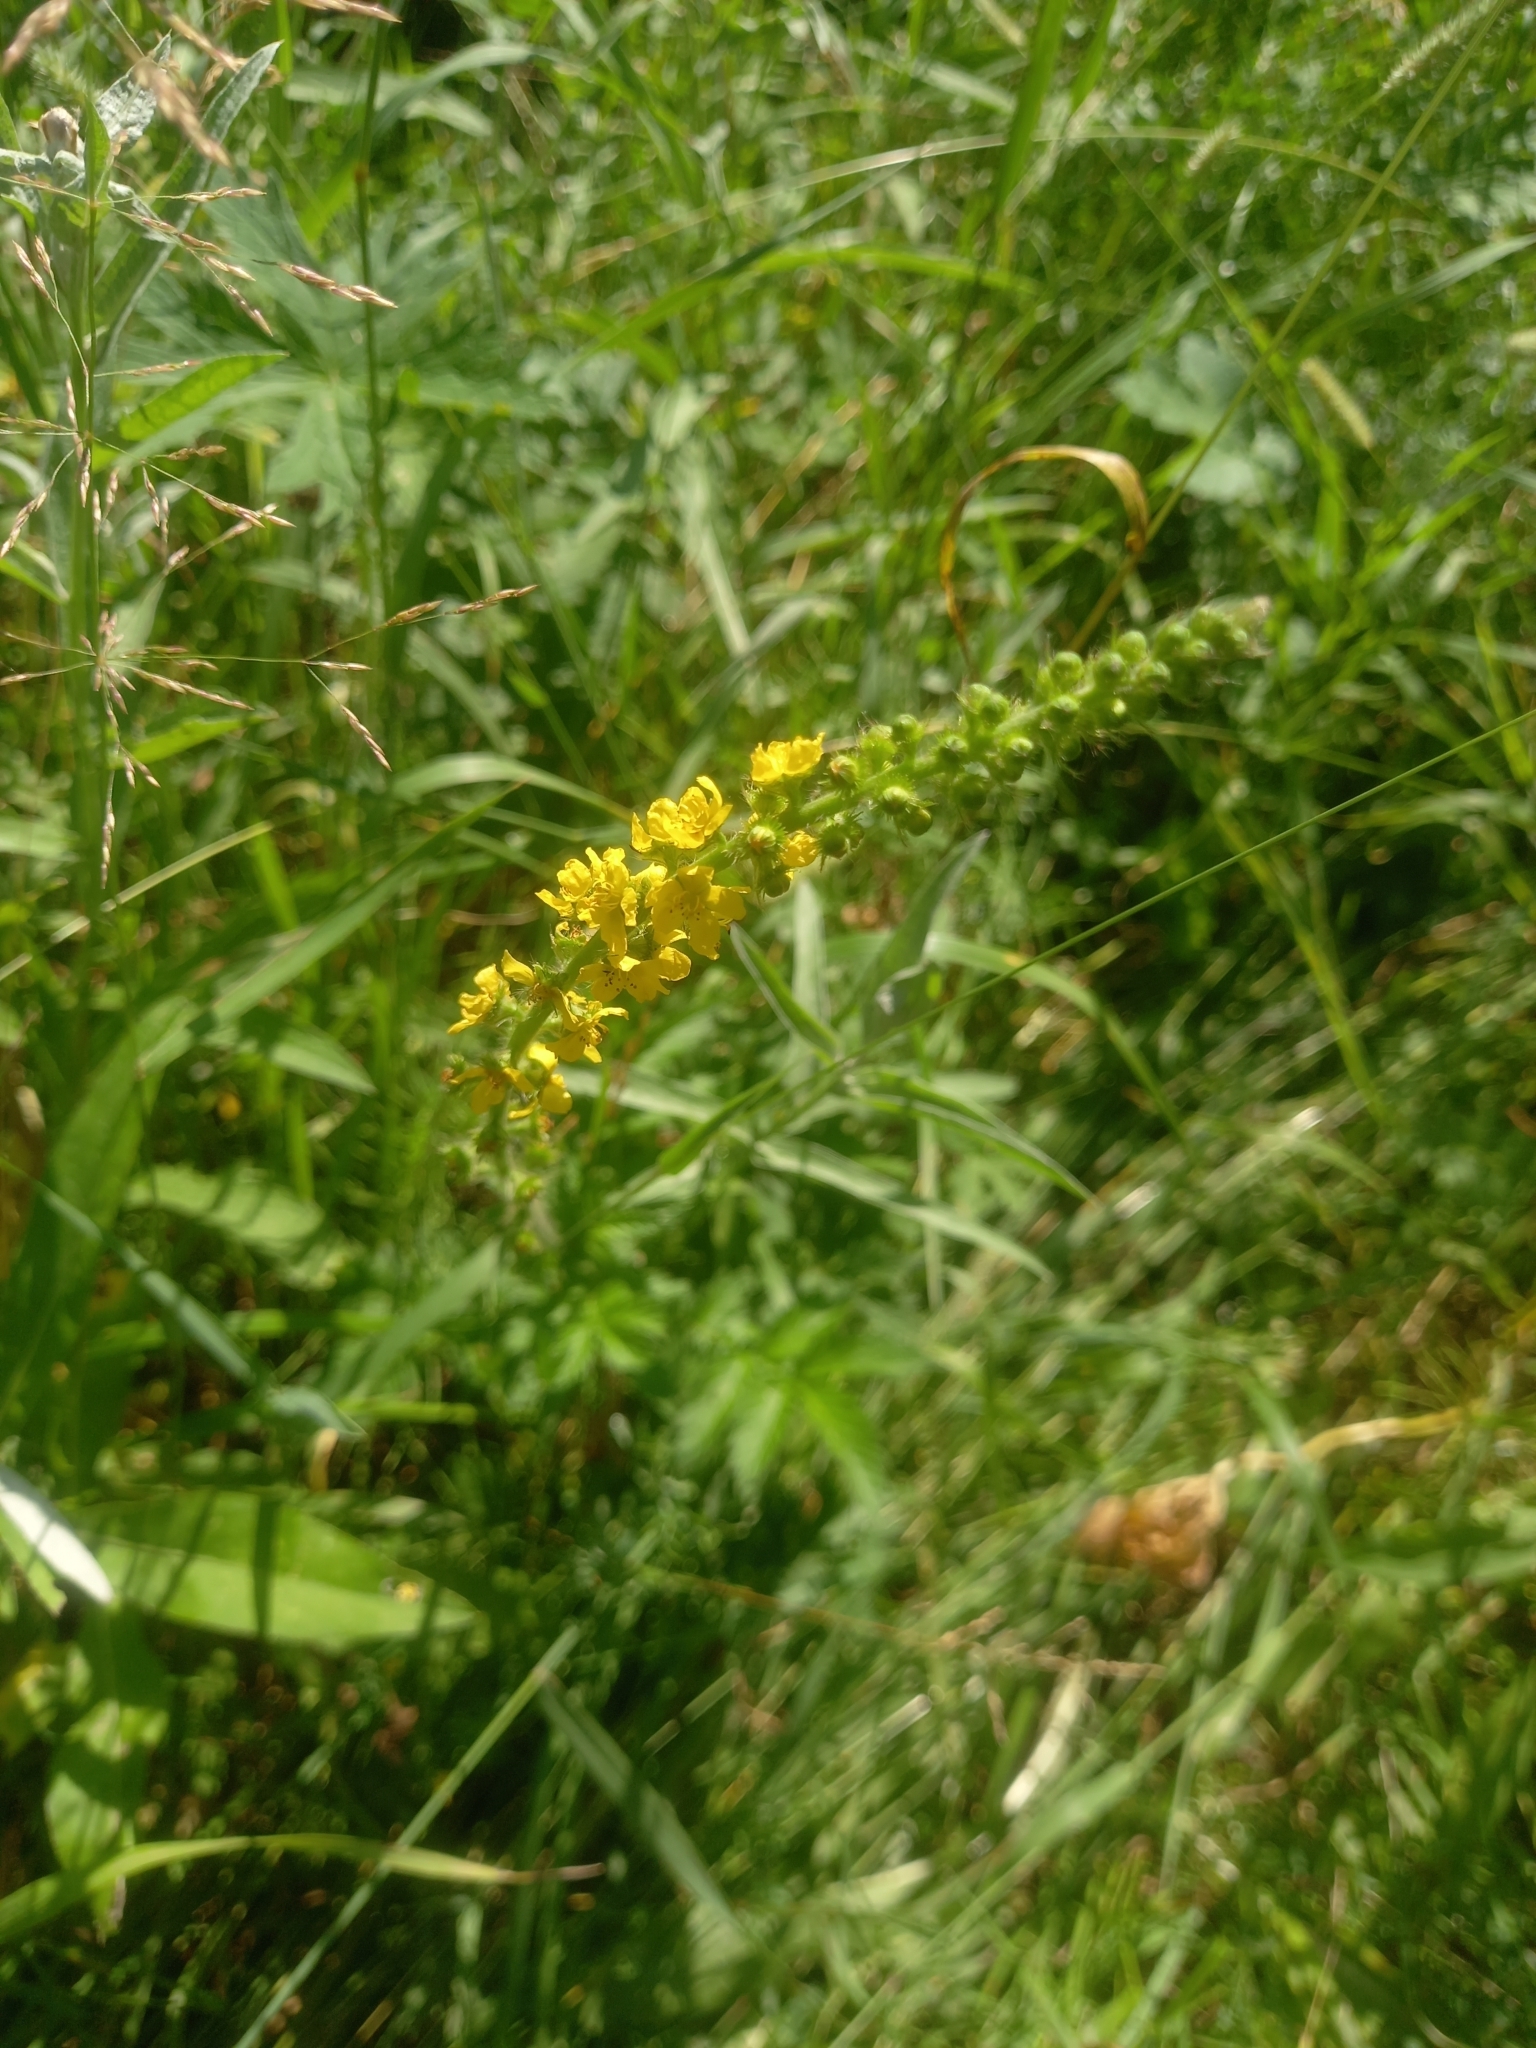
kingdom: Plantae
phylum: Tracheophyta
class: Magnoliopsida
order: Rosales
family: Rosaceae
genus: Agrimonia
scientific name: Agrimonia eupatoria
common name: Agrimony
